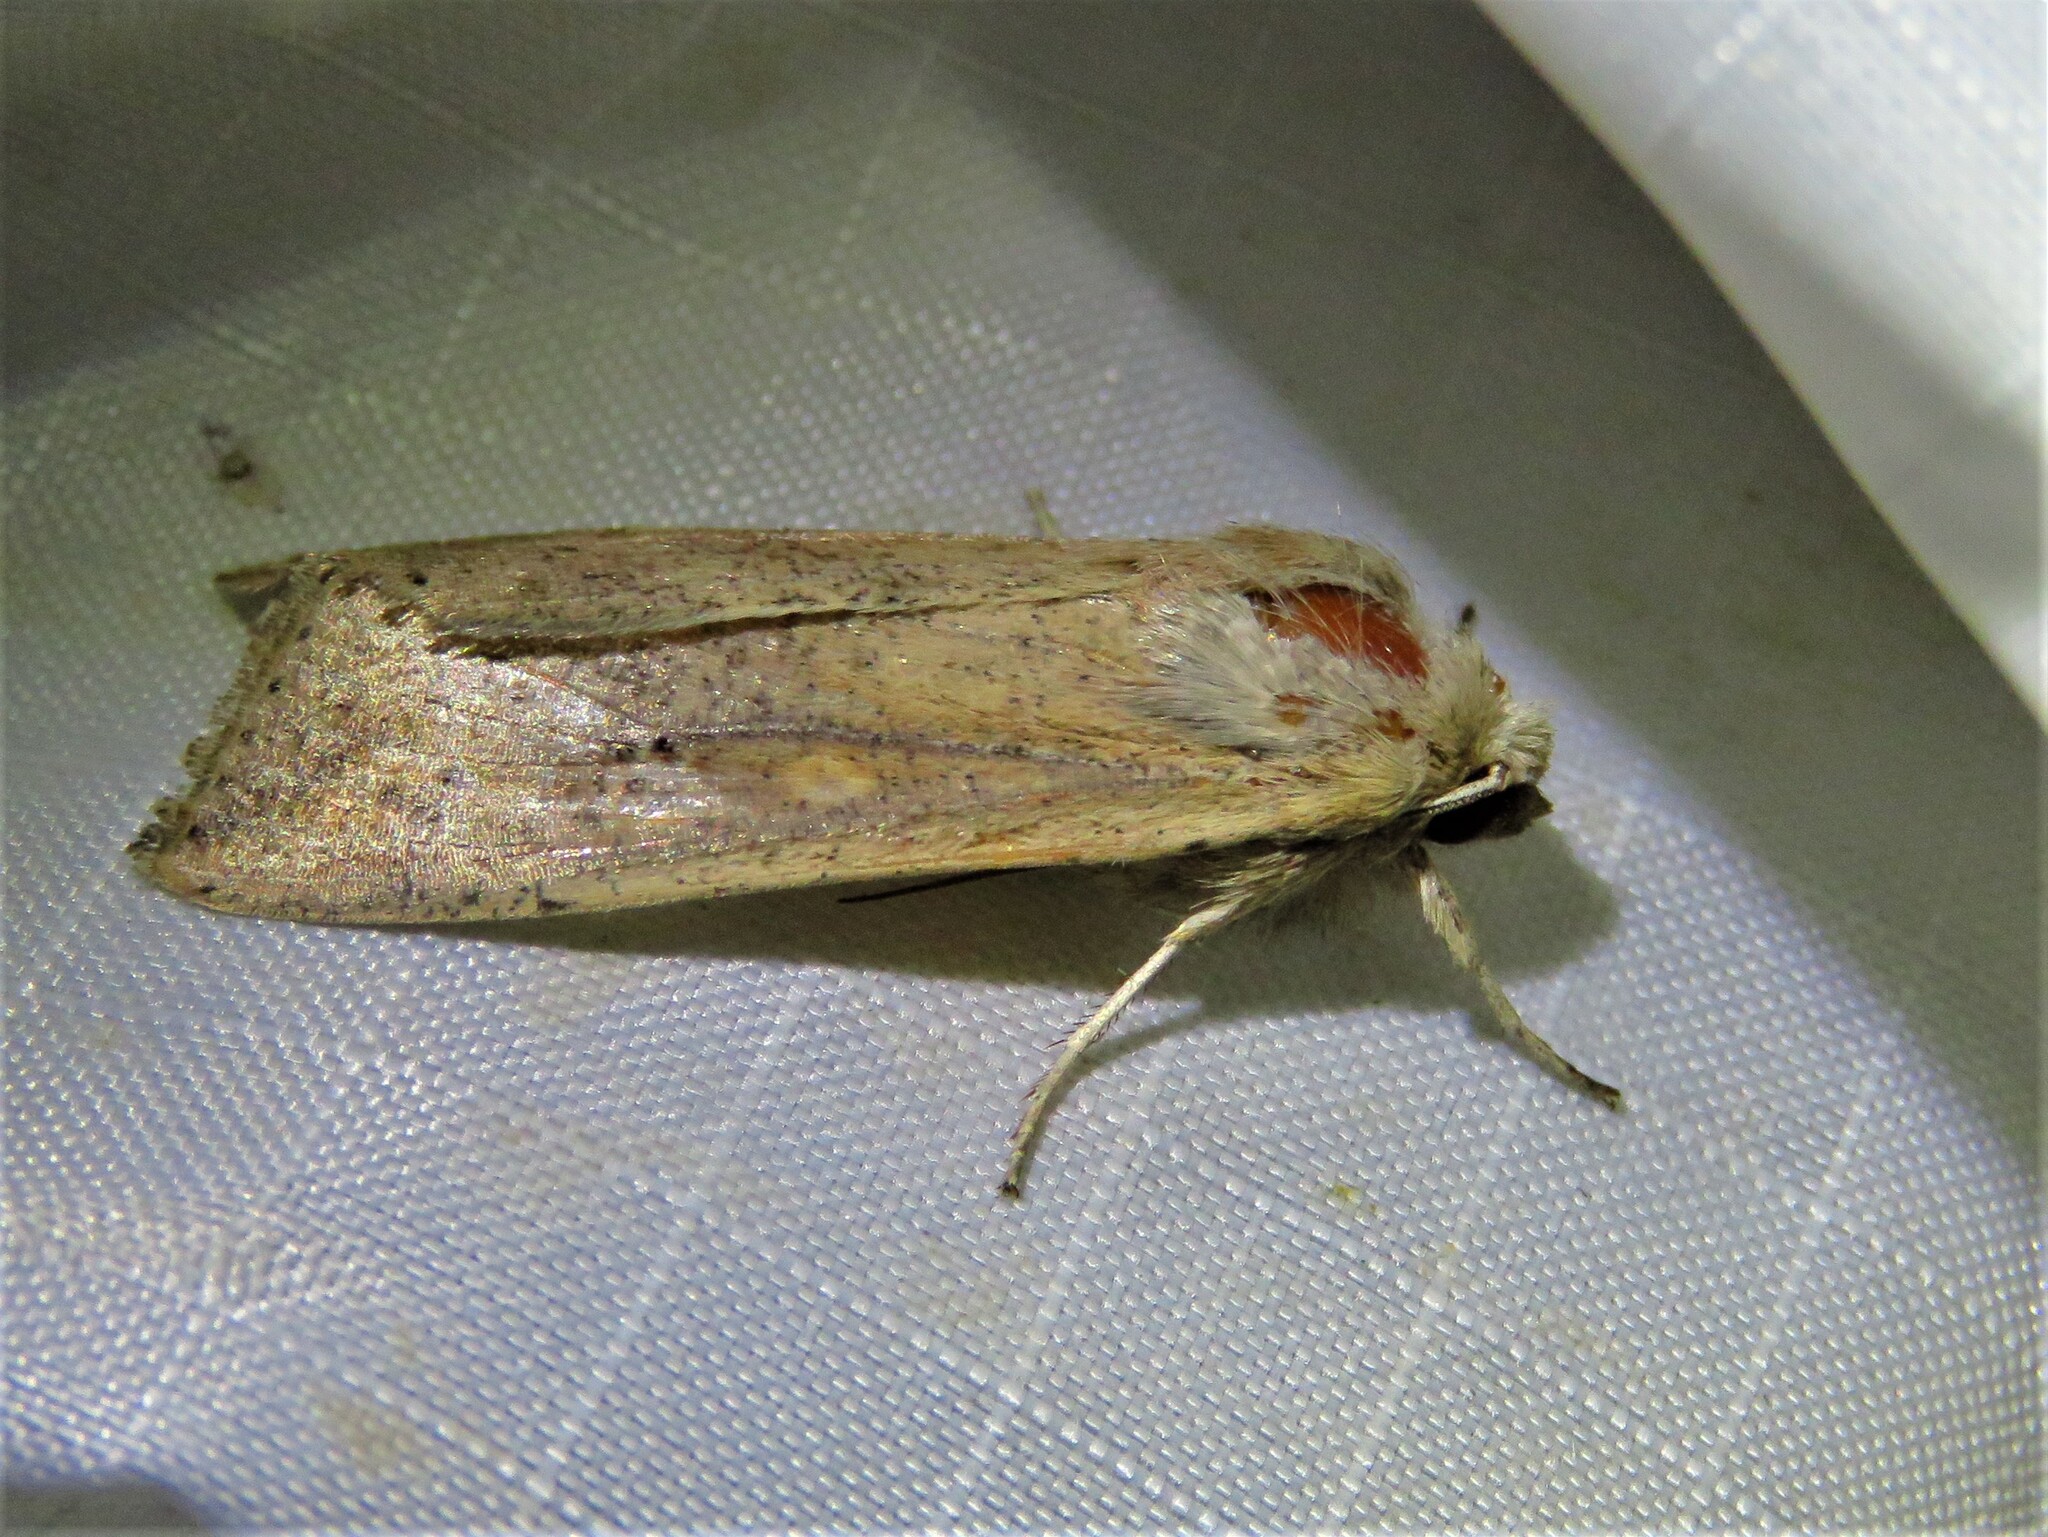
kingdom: Animalia
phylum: Arthropoda
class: Insecta
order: Lepidoptera
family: Noctuidae
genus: Mythimna
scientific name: Mythimna unipuncta
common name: White-speck
